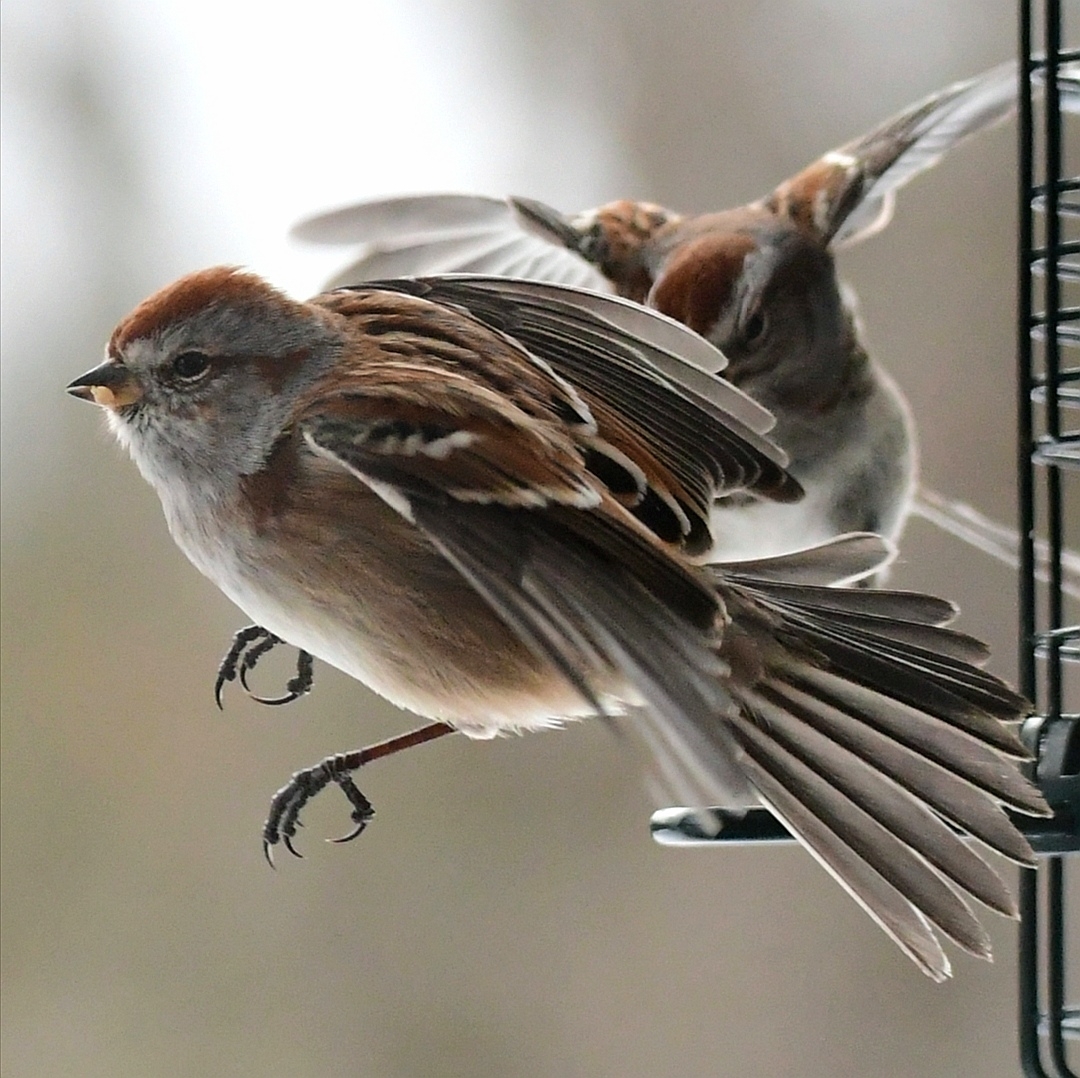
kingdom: Animalia
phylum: Chordata
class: Aves
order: Passeriformes
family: Passerellidae
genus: Spizelloides
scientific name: Spizelloides arborea
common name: American tree sparrow
